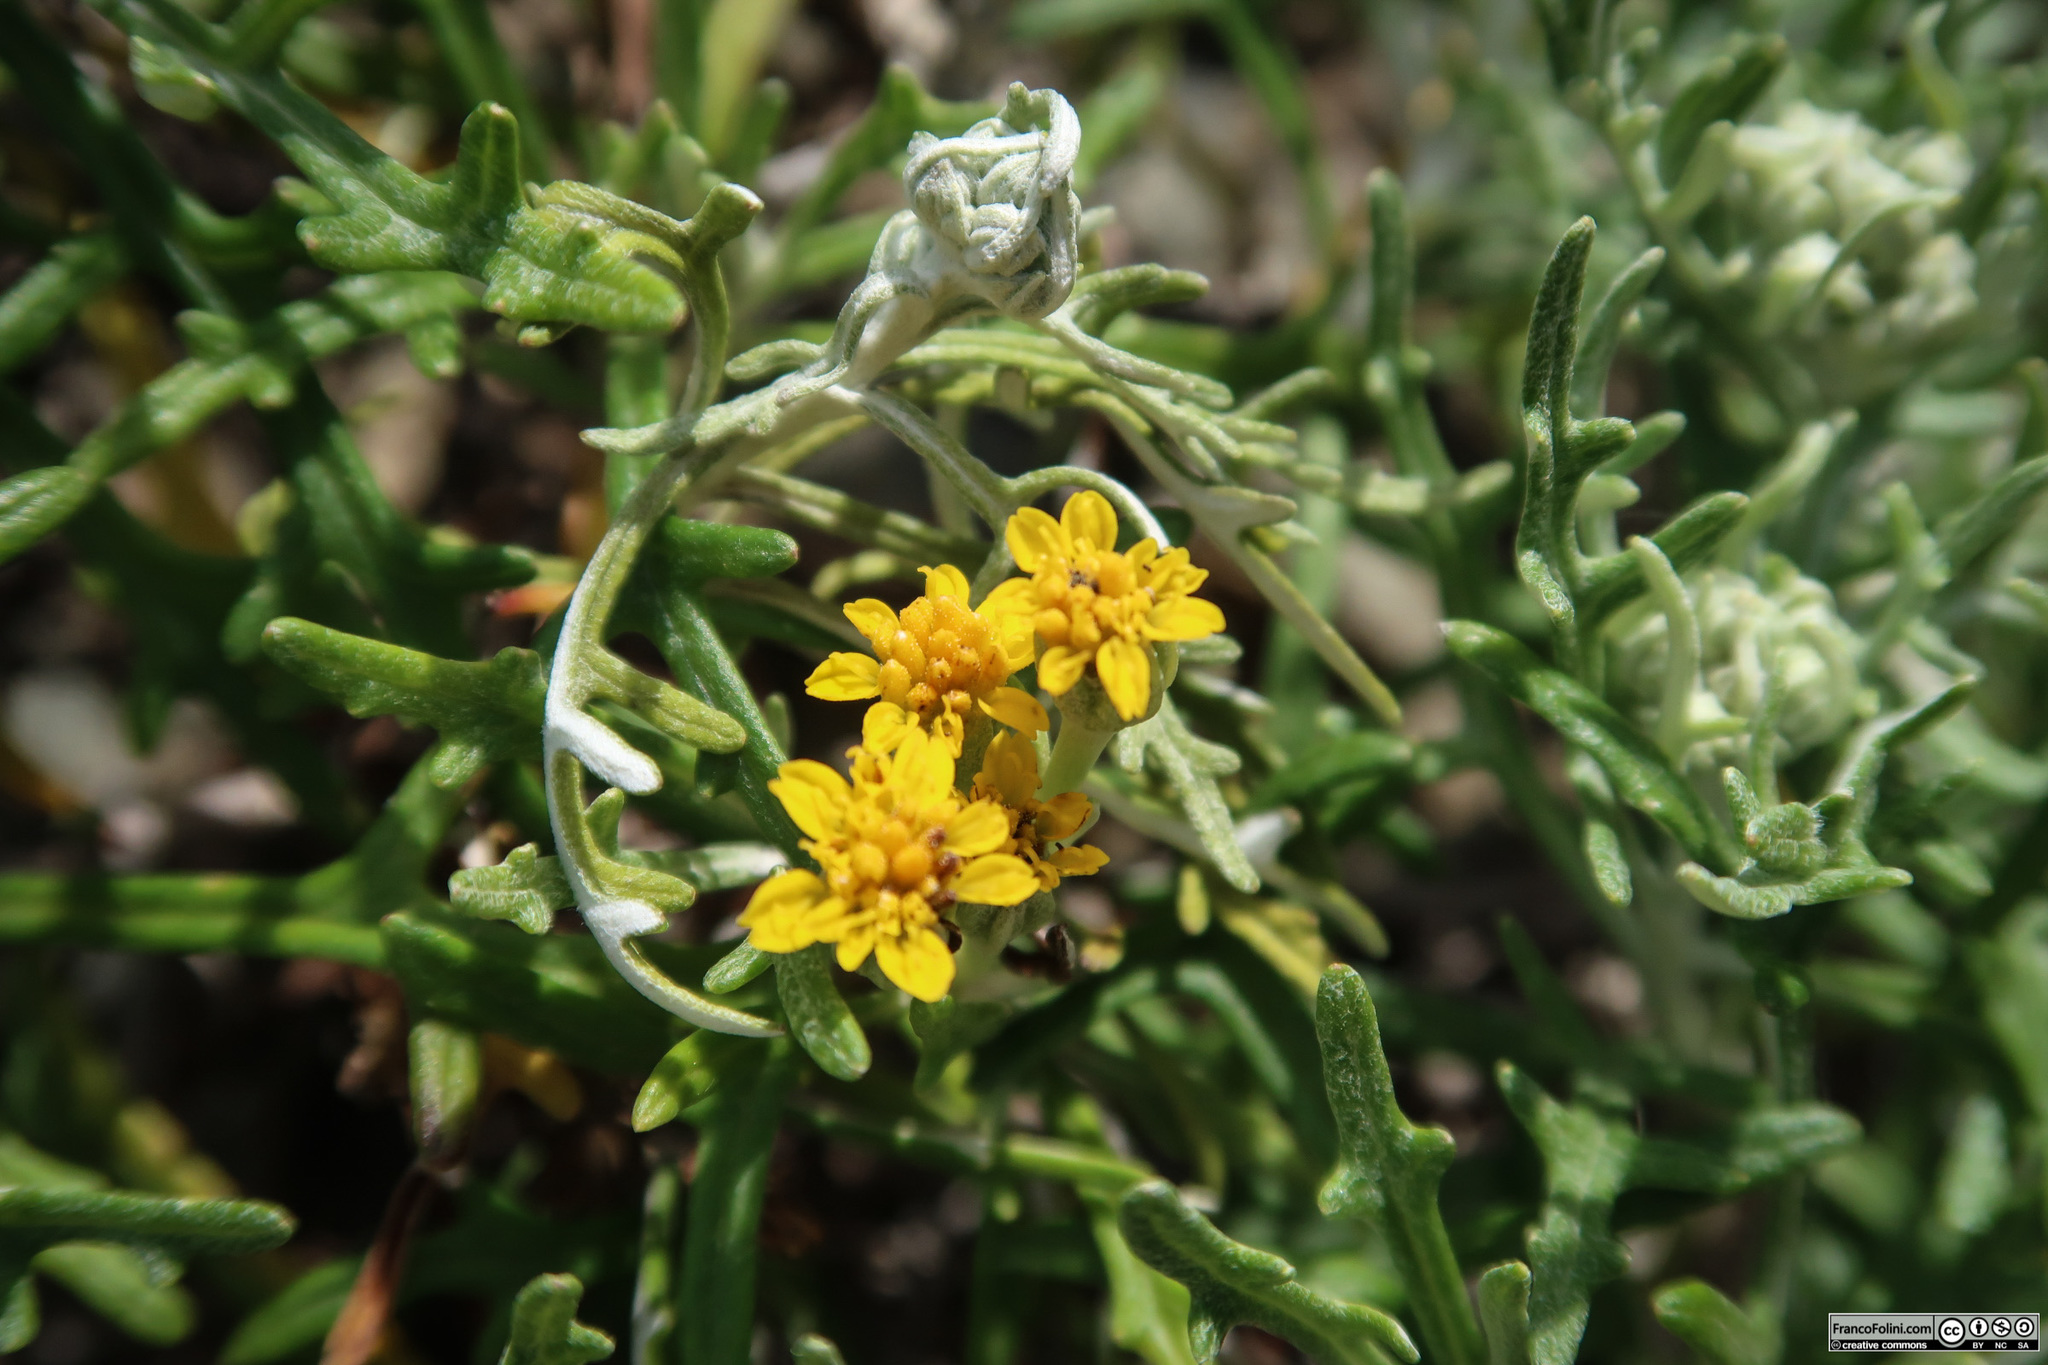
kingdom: Plantae
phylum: Tracheophyta
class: Magnoliopsida
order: Asterales
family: Asteraceae
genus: Eriophyllum
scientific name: Eriophyllum staechadifolium
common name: Lizardtail
